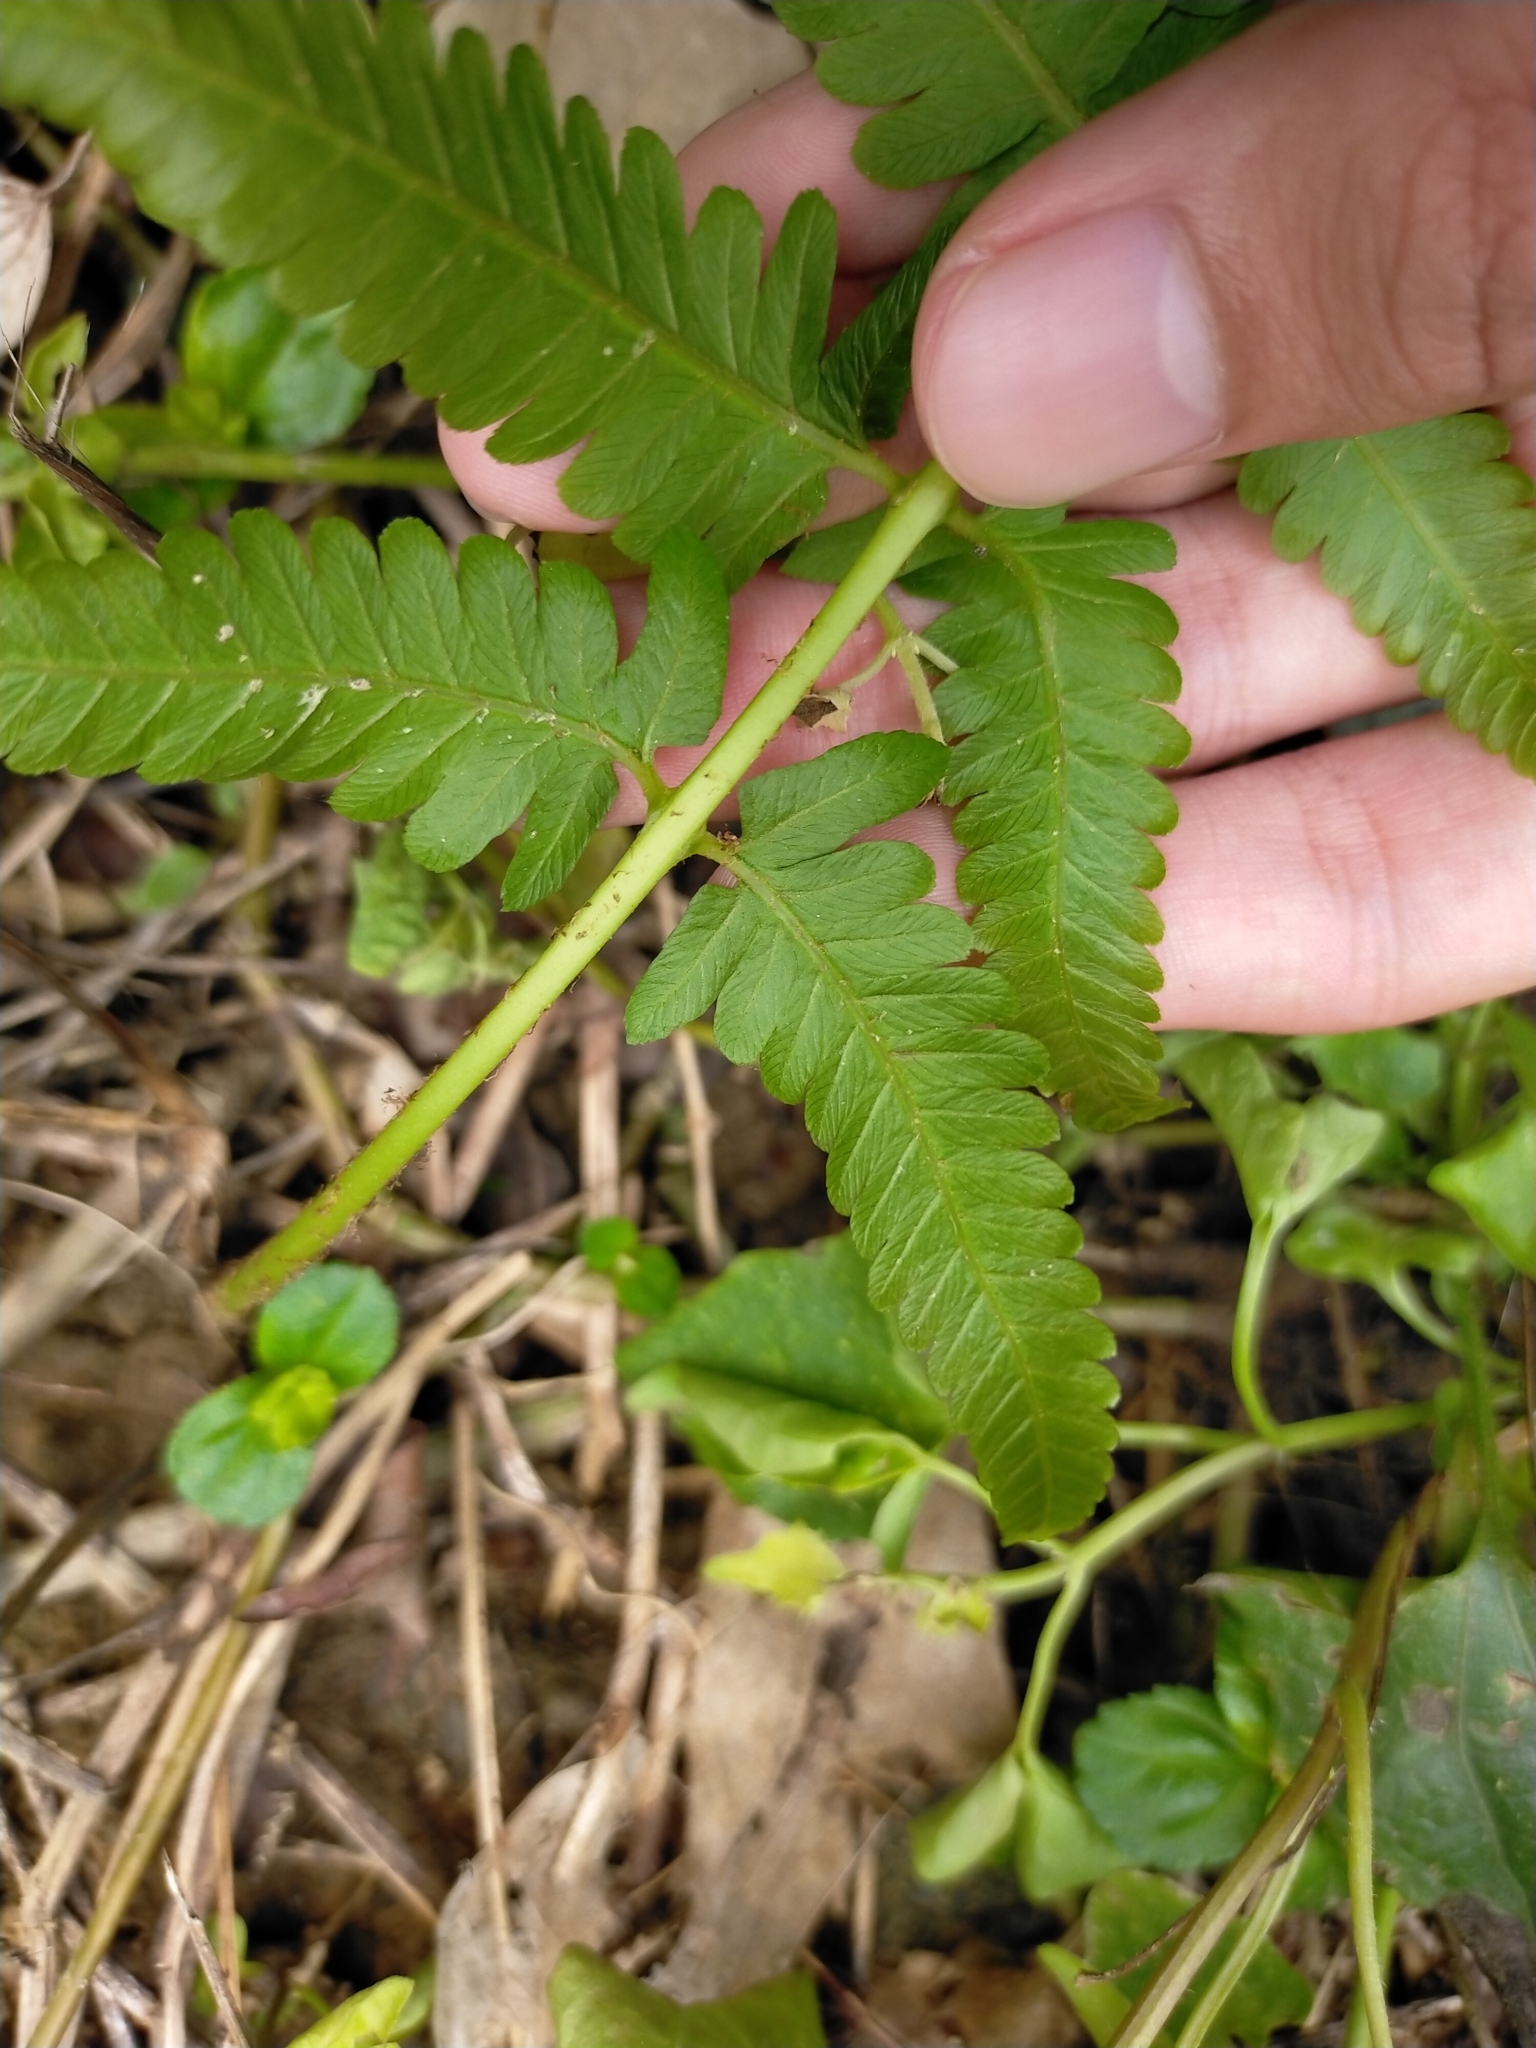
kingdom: Plantae
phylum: Tracheophyta
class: Polypodiopsida
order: Polypodiales
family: Athyriaceae
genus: Diplazium
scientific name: Diplazium esculentum
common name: Vegetable fern
